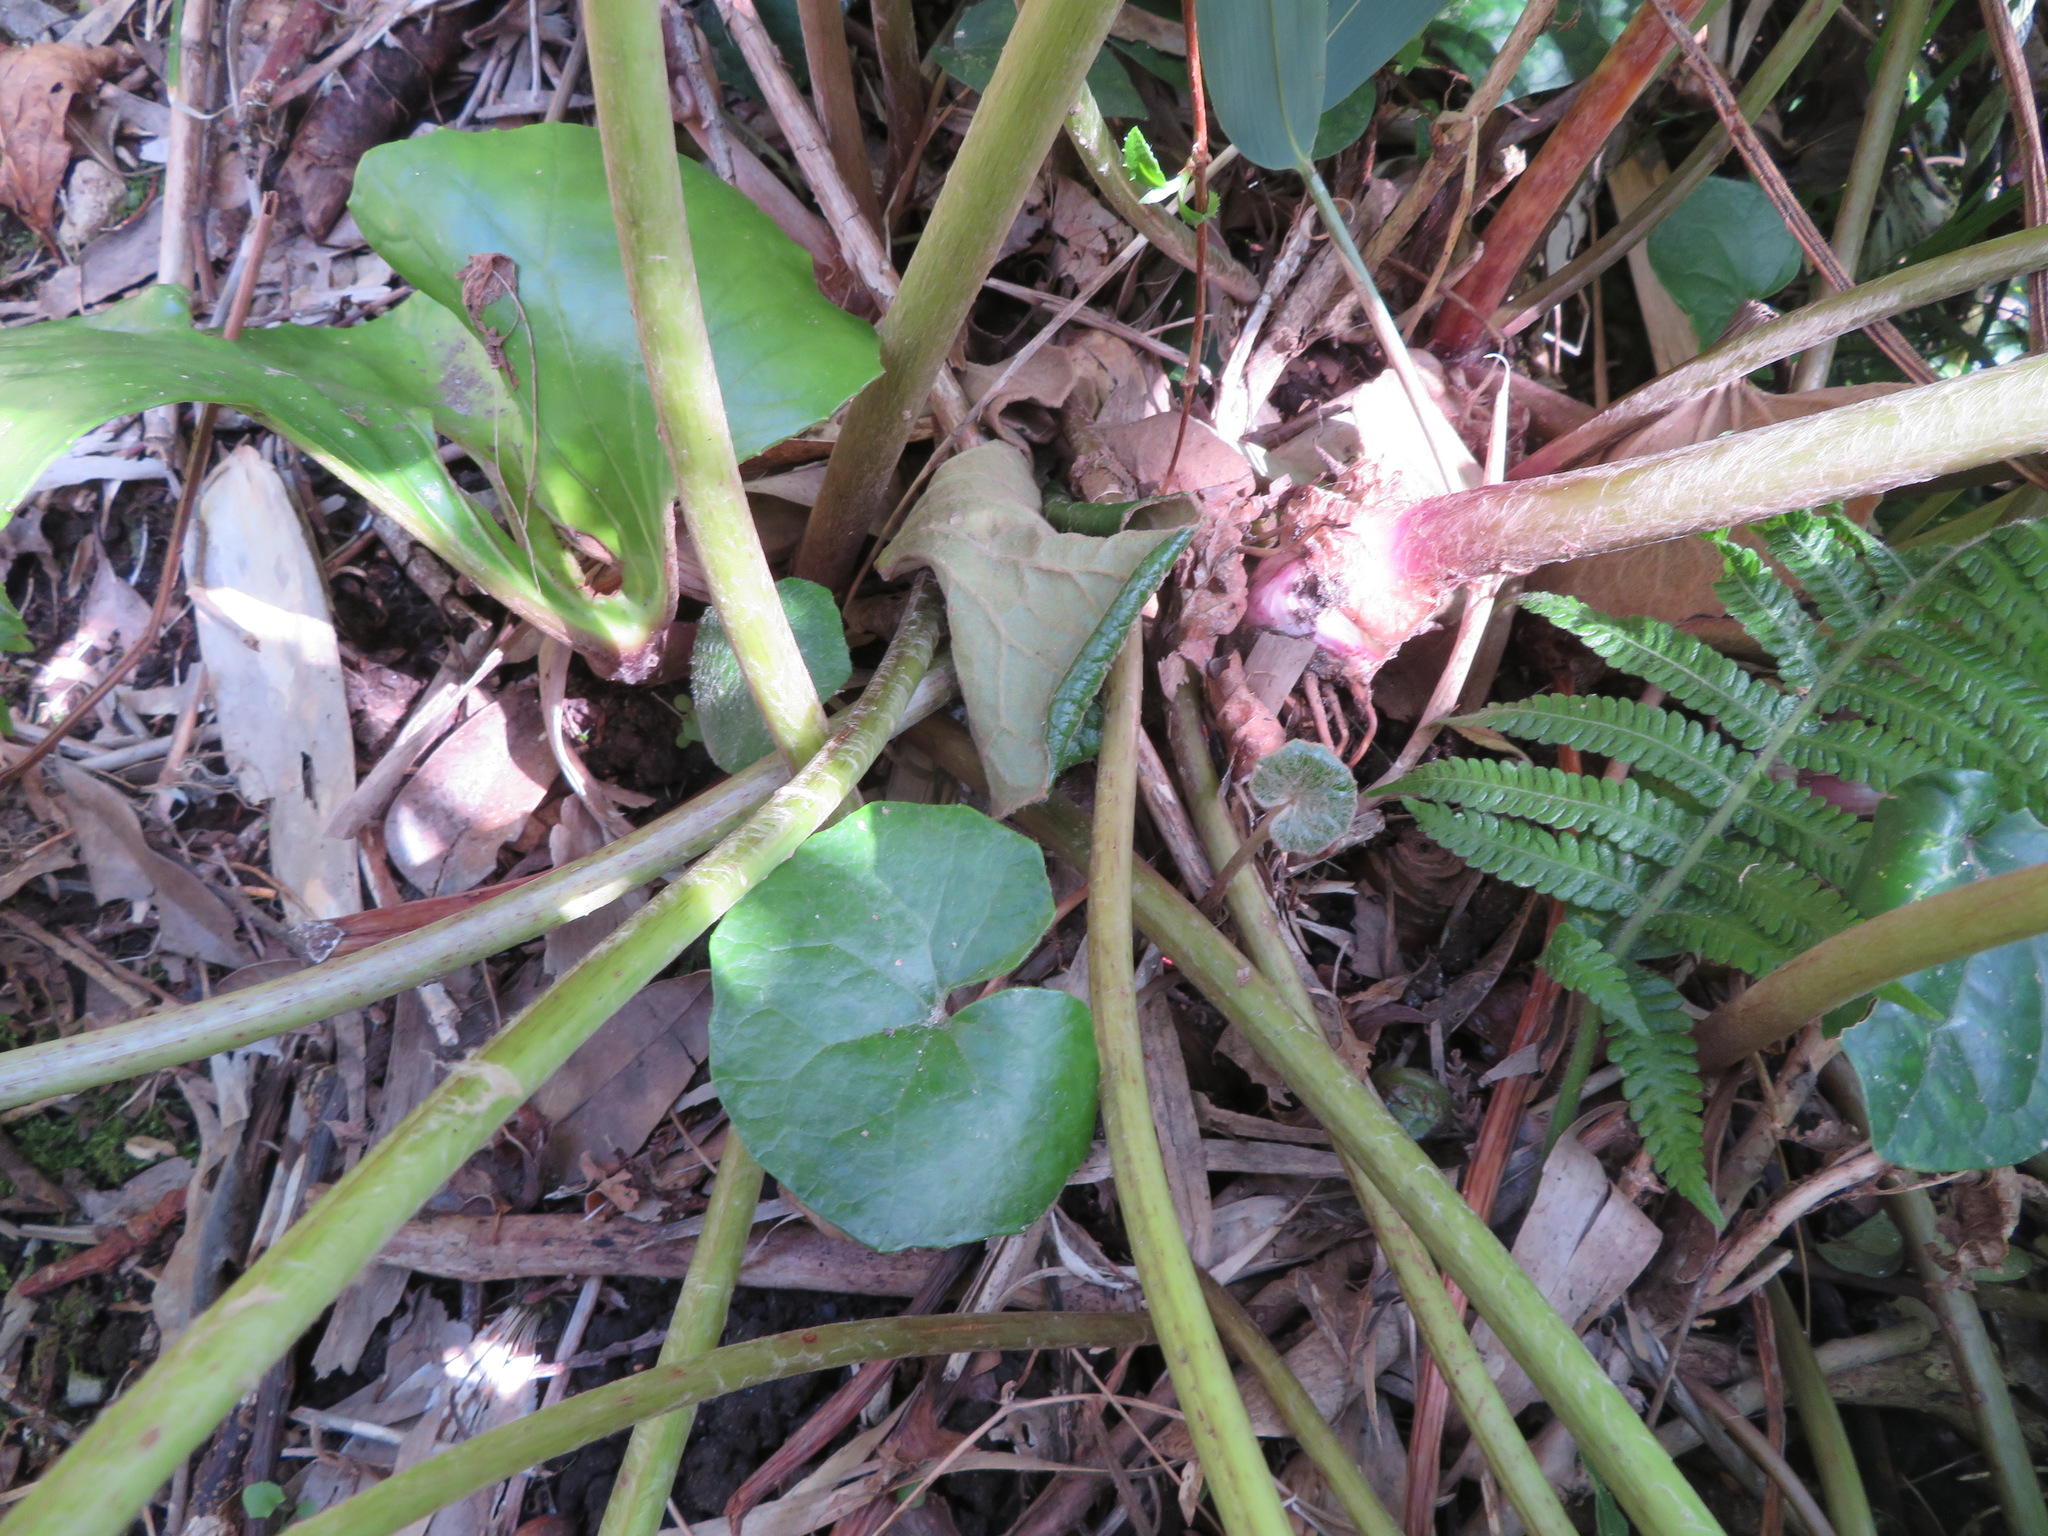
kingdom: Plantae
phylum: Tracheophyta
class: Magnoliopsida
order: Asterales
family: Asteraceae
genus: Farfugium
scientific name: Farfugium japonicum
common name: Leopardplant
